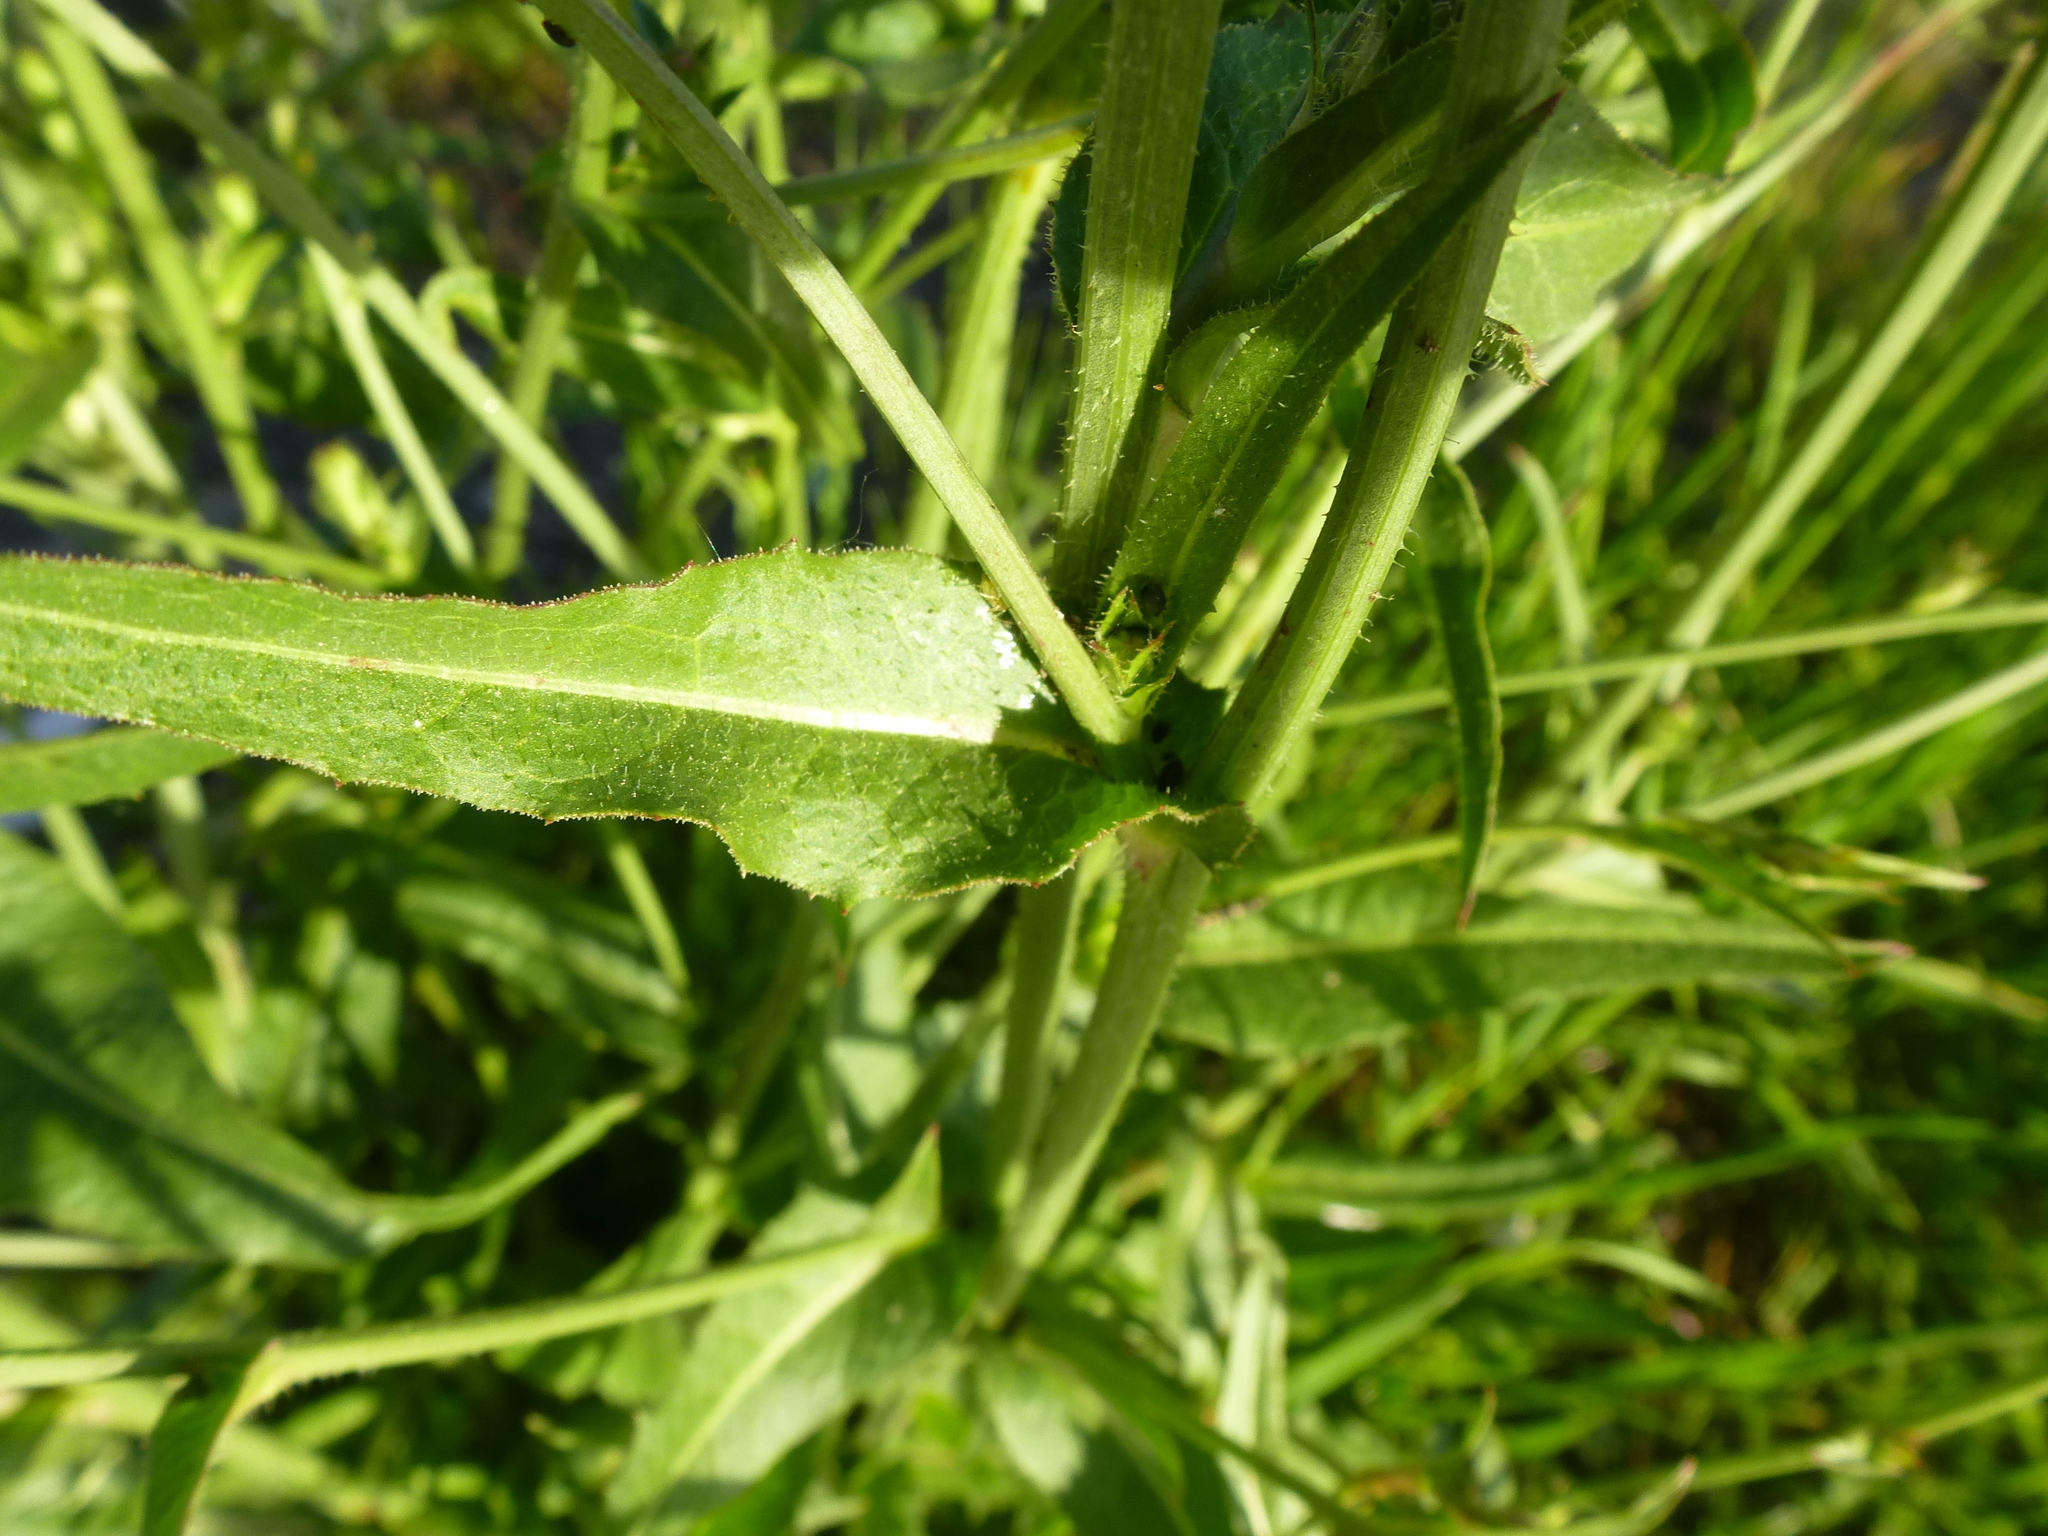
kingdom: Plantae
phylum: Tracheophyta
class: Magnoliopsida
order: Asterales
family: Asteraceae
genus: Cichorium
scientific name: Cichorium intybus
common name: Chicory
